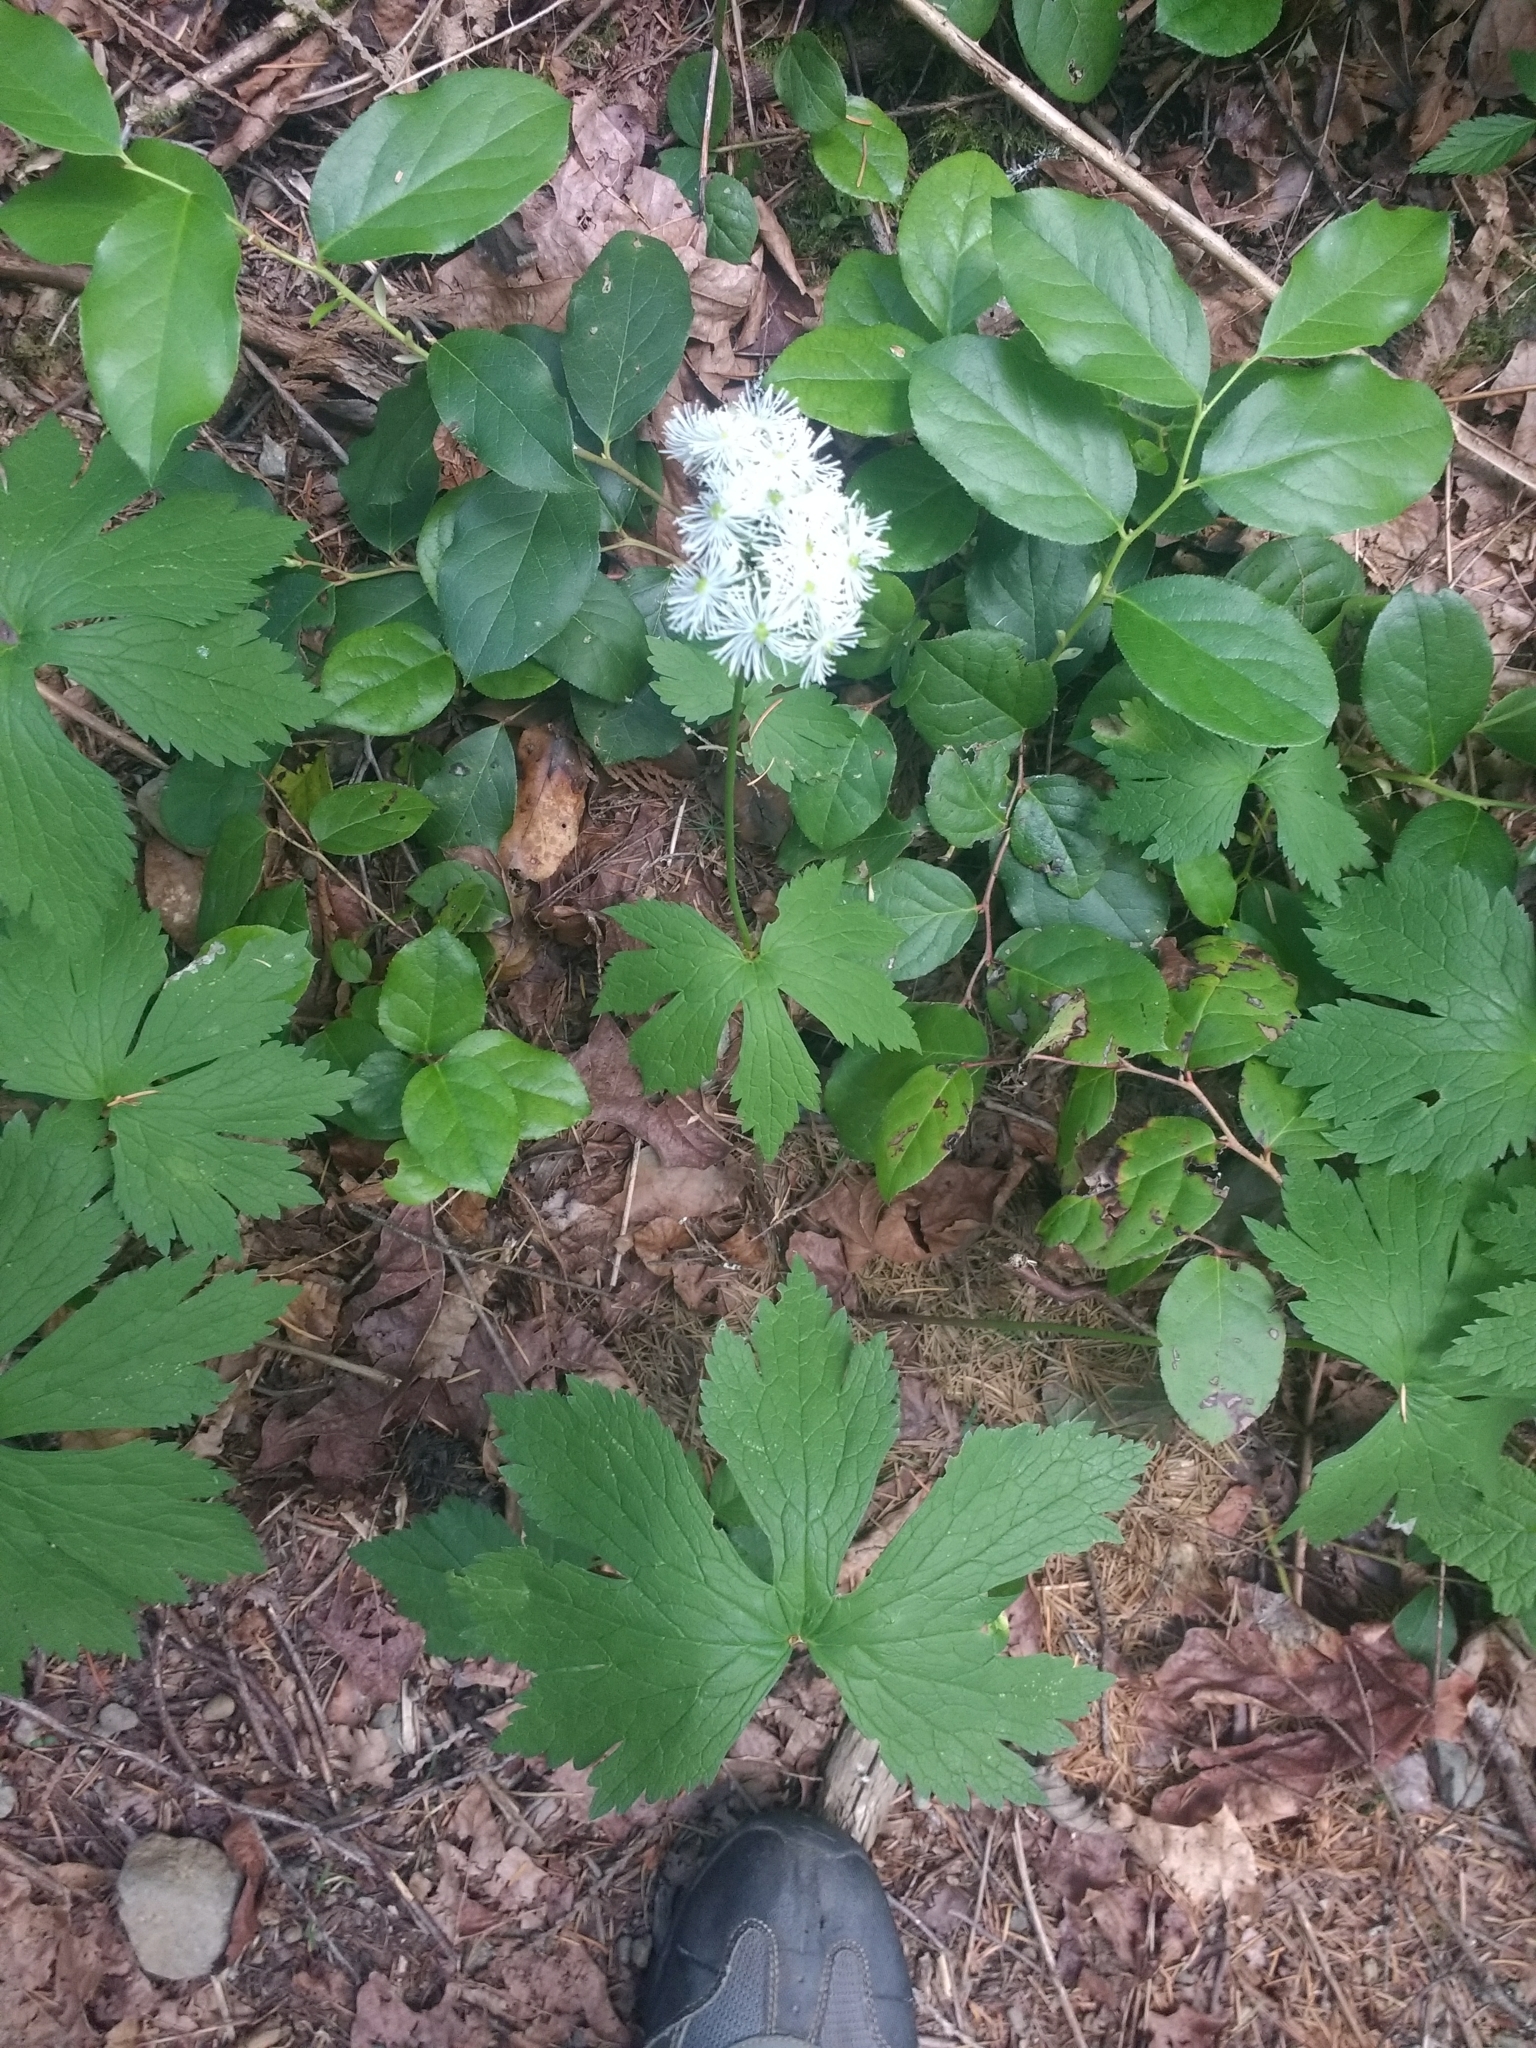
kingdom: Plantae
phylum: Tracheophyta
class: Magnoliopsida
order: Ranunculales
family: Ranunculaceae
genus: Trautvetteria
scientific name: Trautvetteria carolinensis
